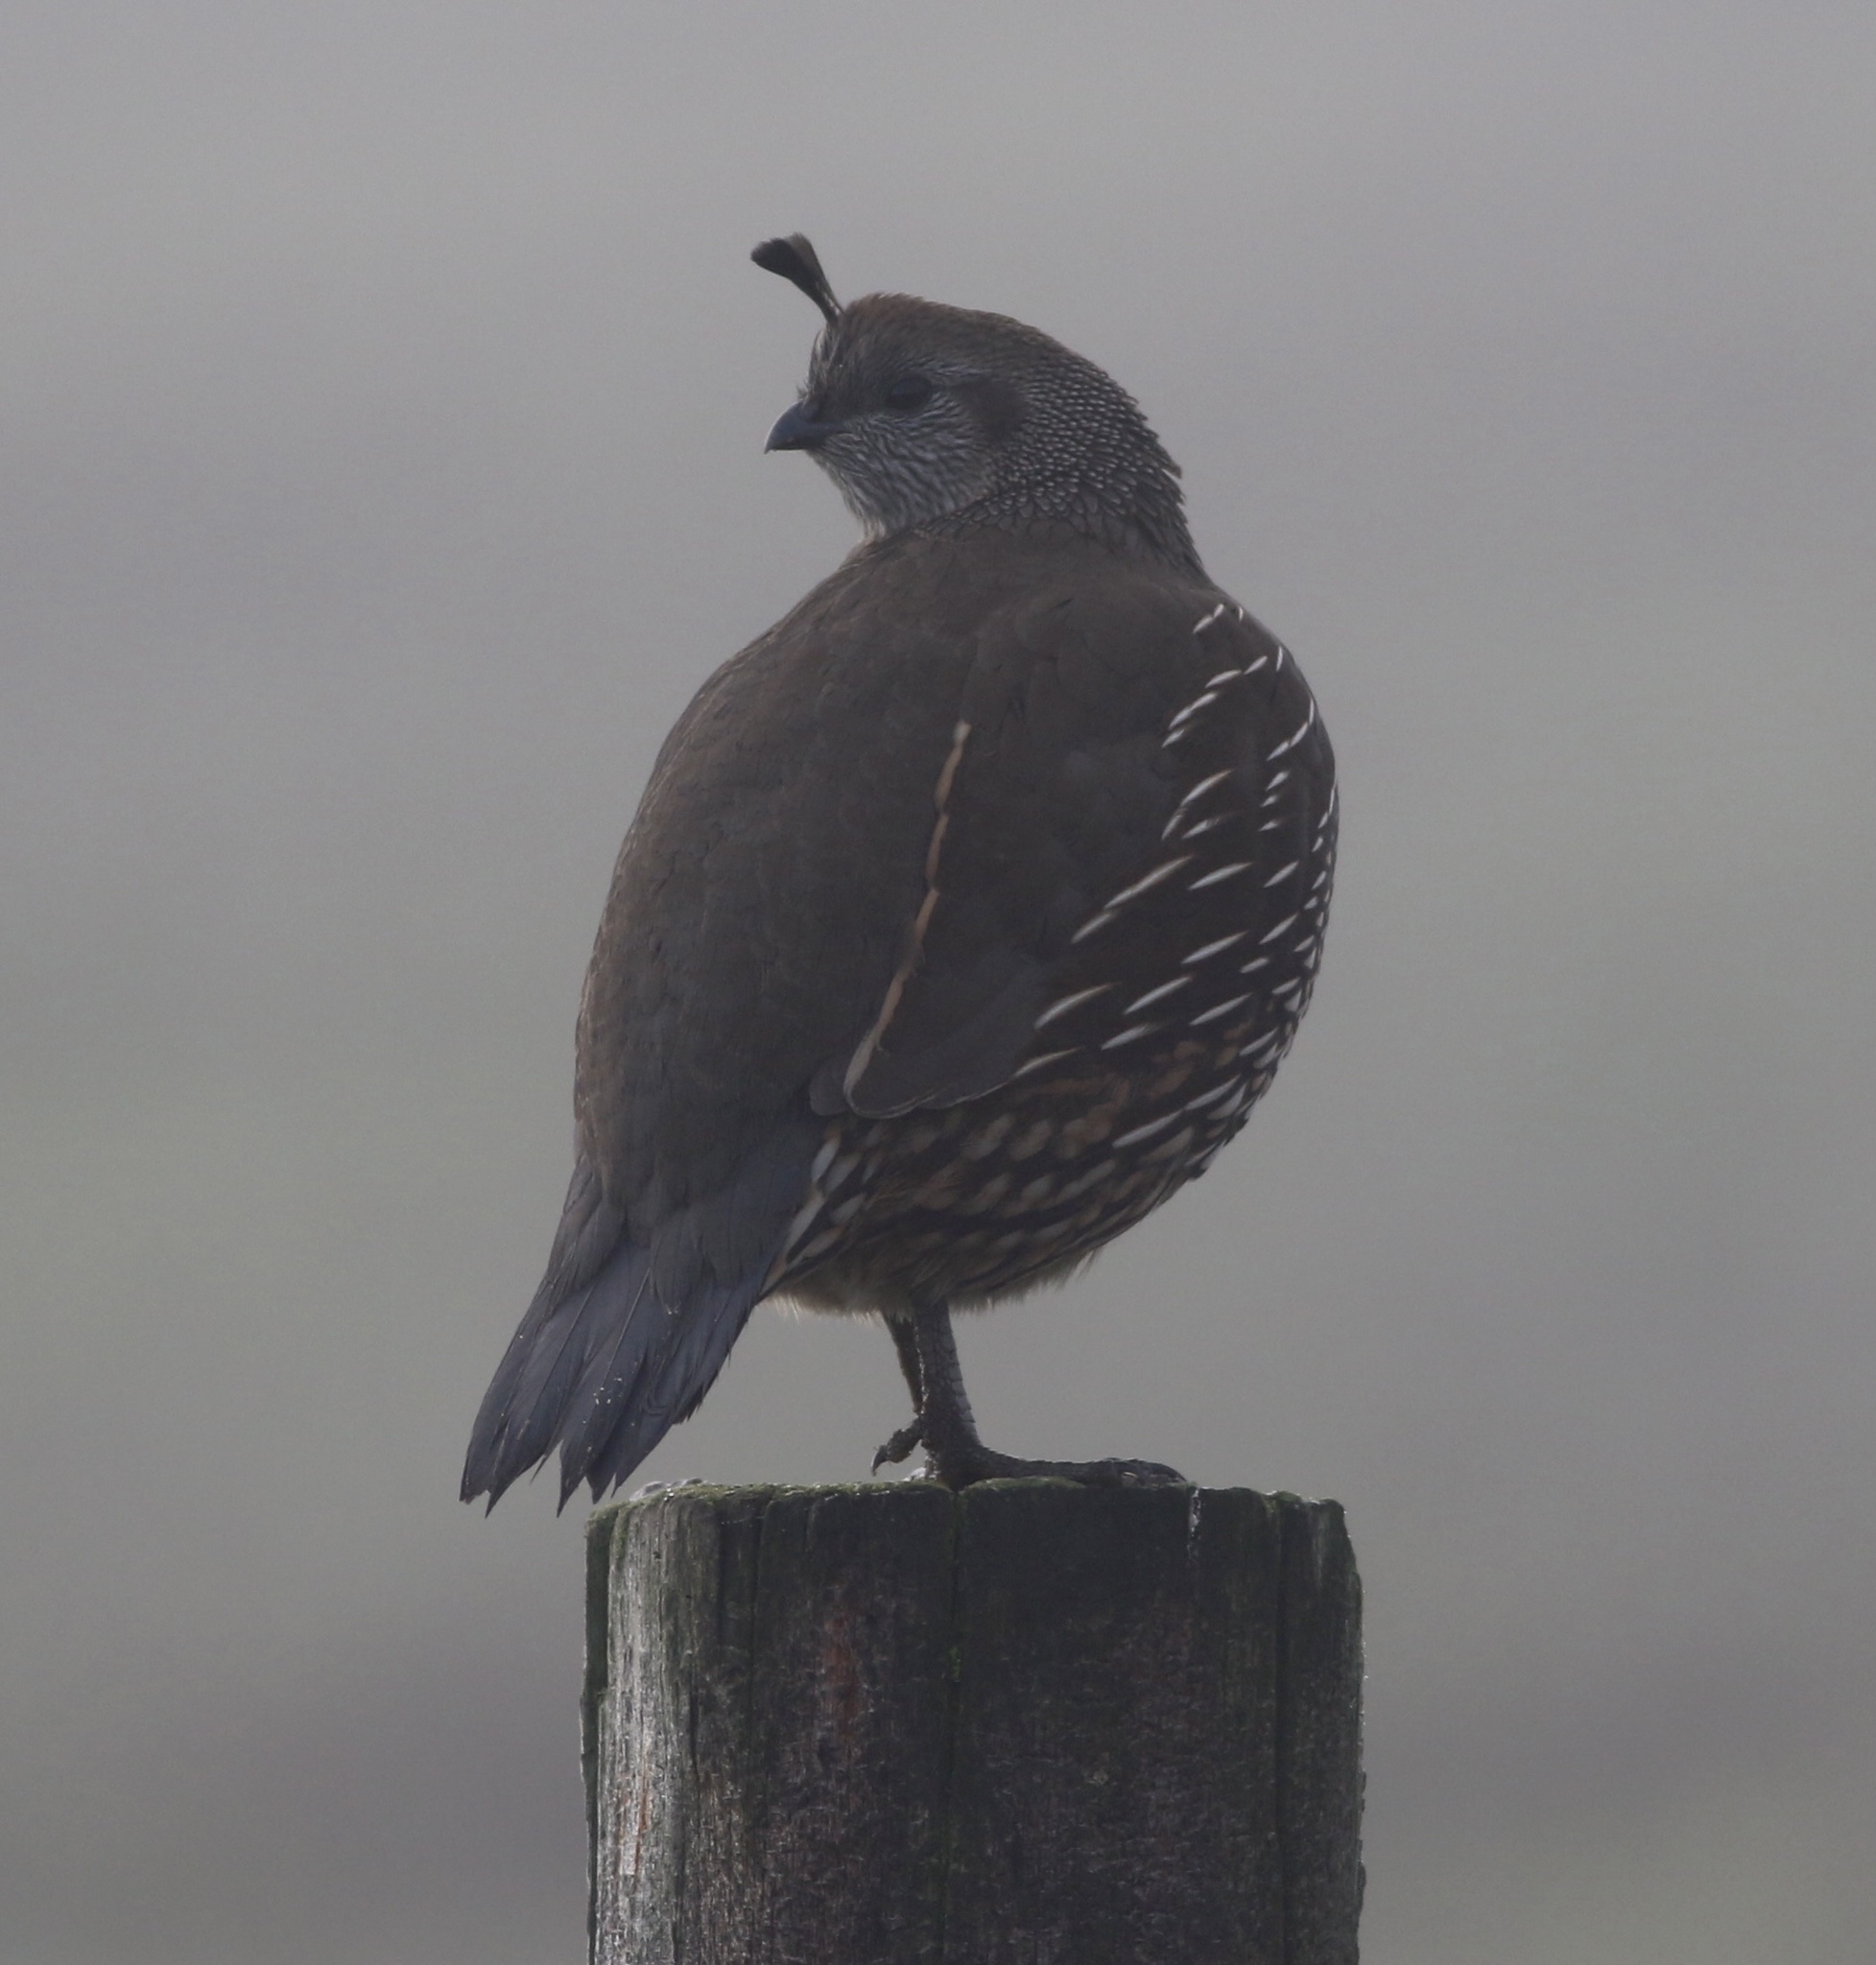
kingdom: Animalia
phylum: Chordata
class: Aves
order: Galliformes
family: Odontophoridae
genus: Callipepla
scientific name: Callipepla californica
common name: California quail
